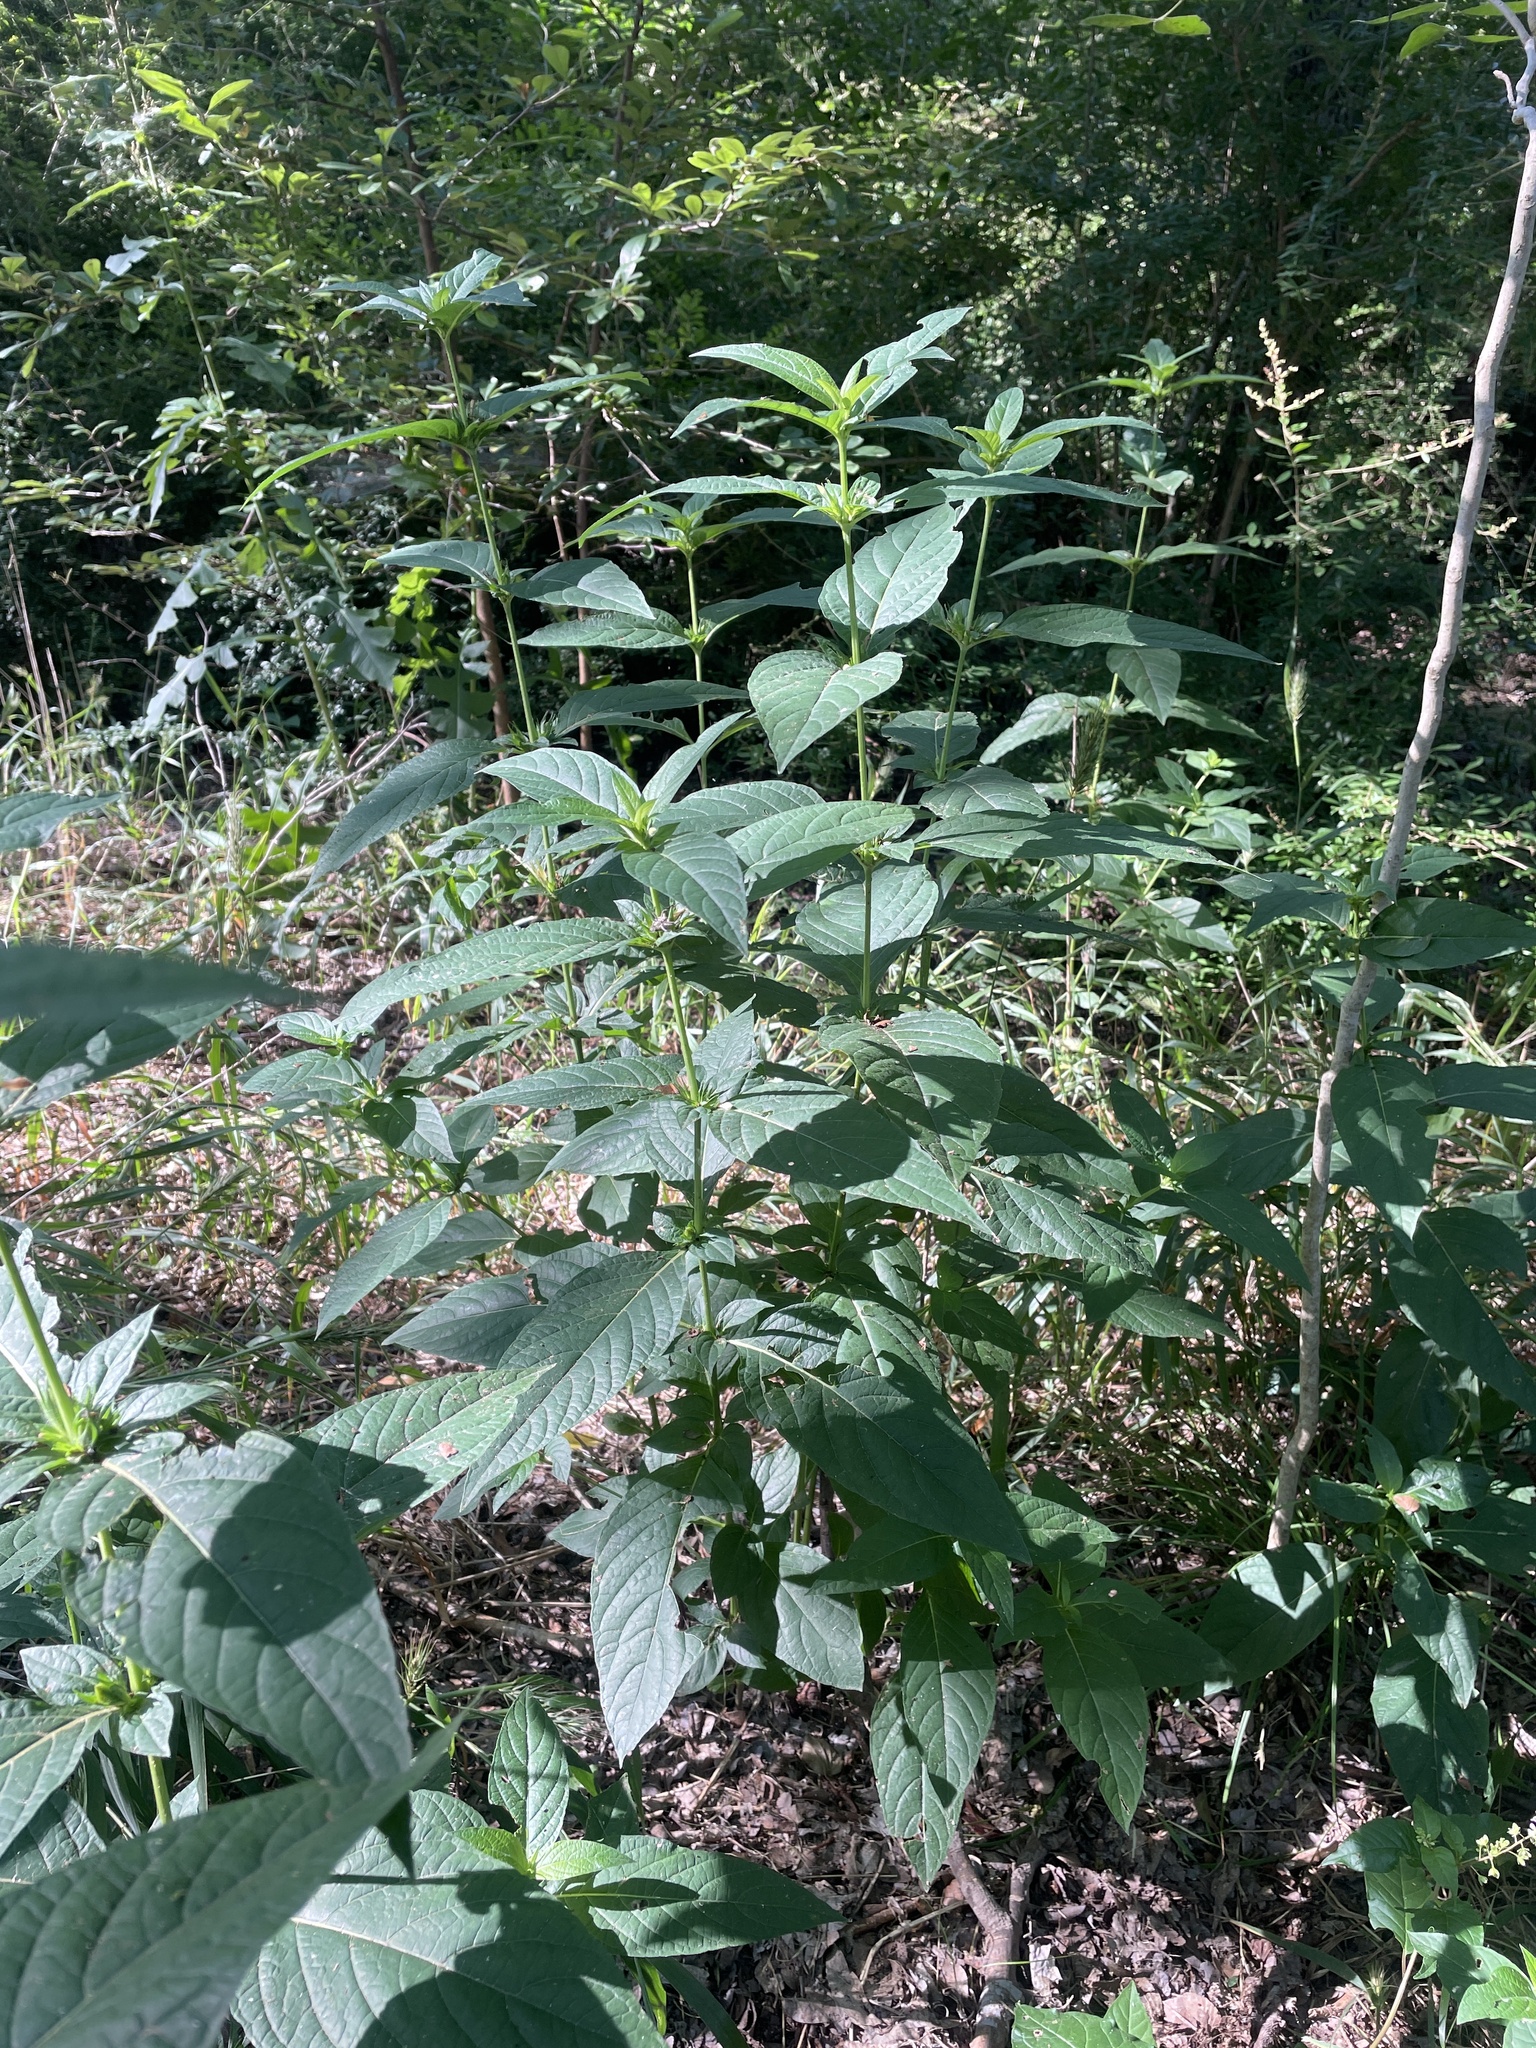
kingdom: Plantae
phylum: Tracheophyta
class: Magnoliopsida
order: Lamiales
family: Acanthaceae
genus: Ruellia
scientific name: Ruellia strepens
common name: Limestone wild petunia
